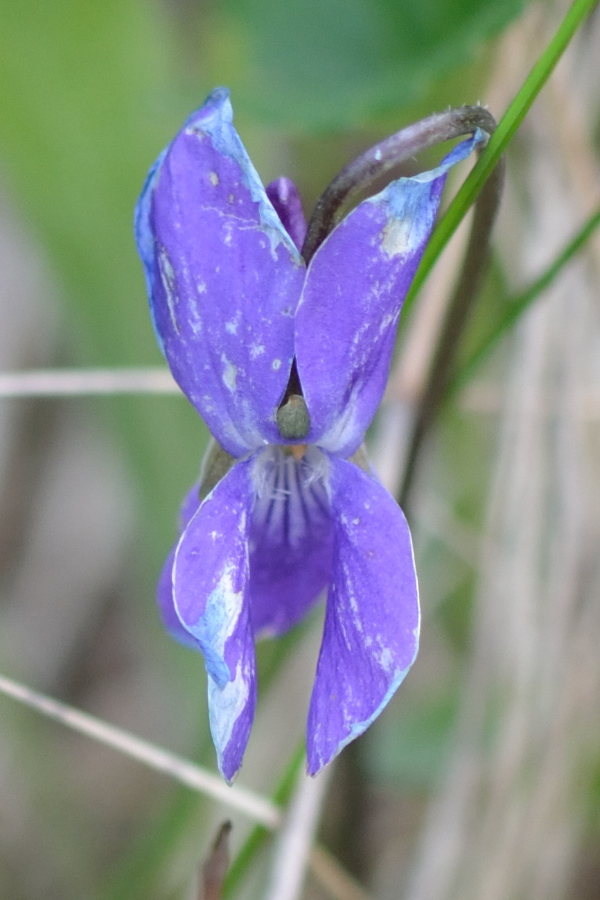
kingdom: Plantae
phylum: Tracheophyta
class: Magnoliopsida
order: Malpighiales
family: Violaceae
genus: Viola
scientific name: Viola hirta
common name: Hairy violet
